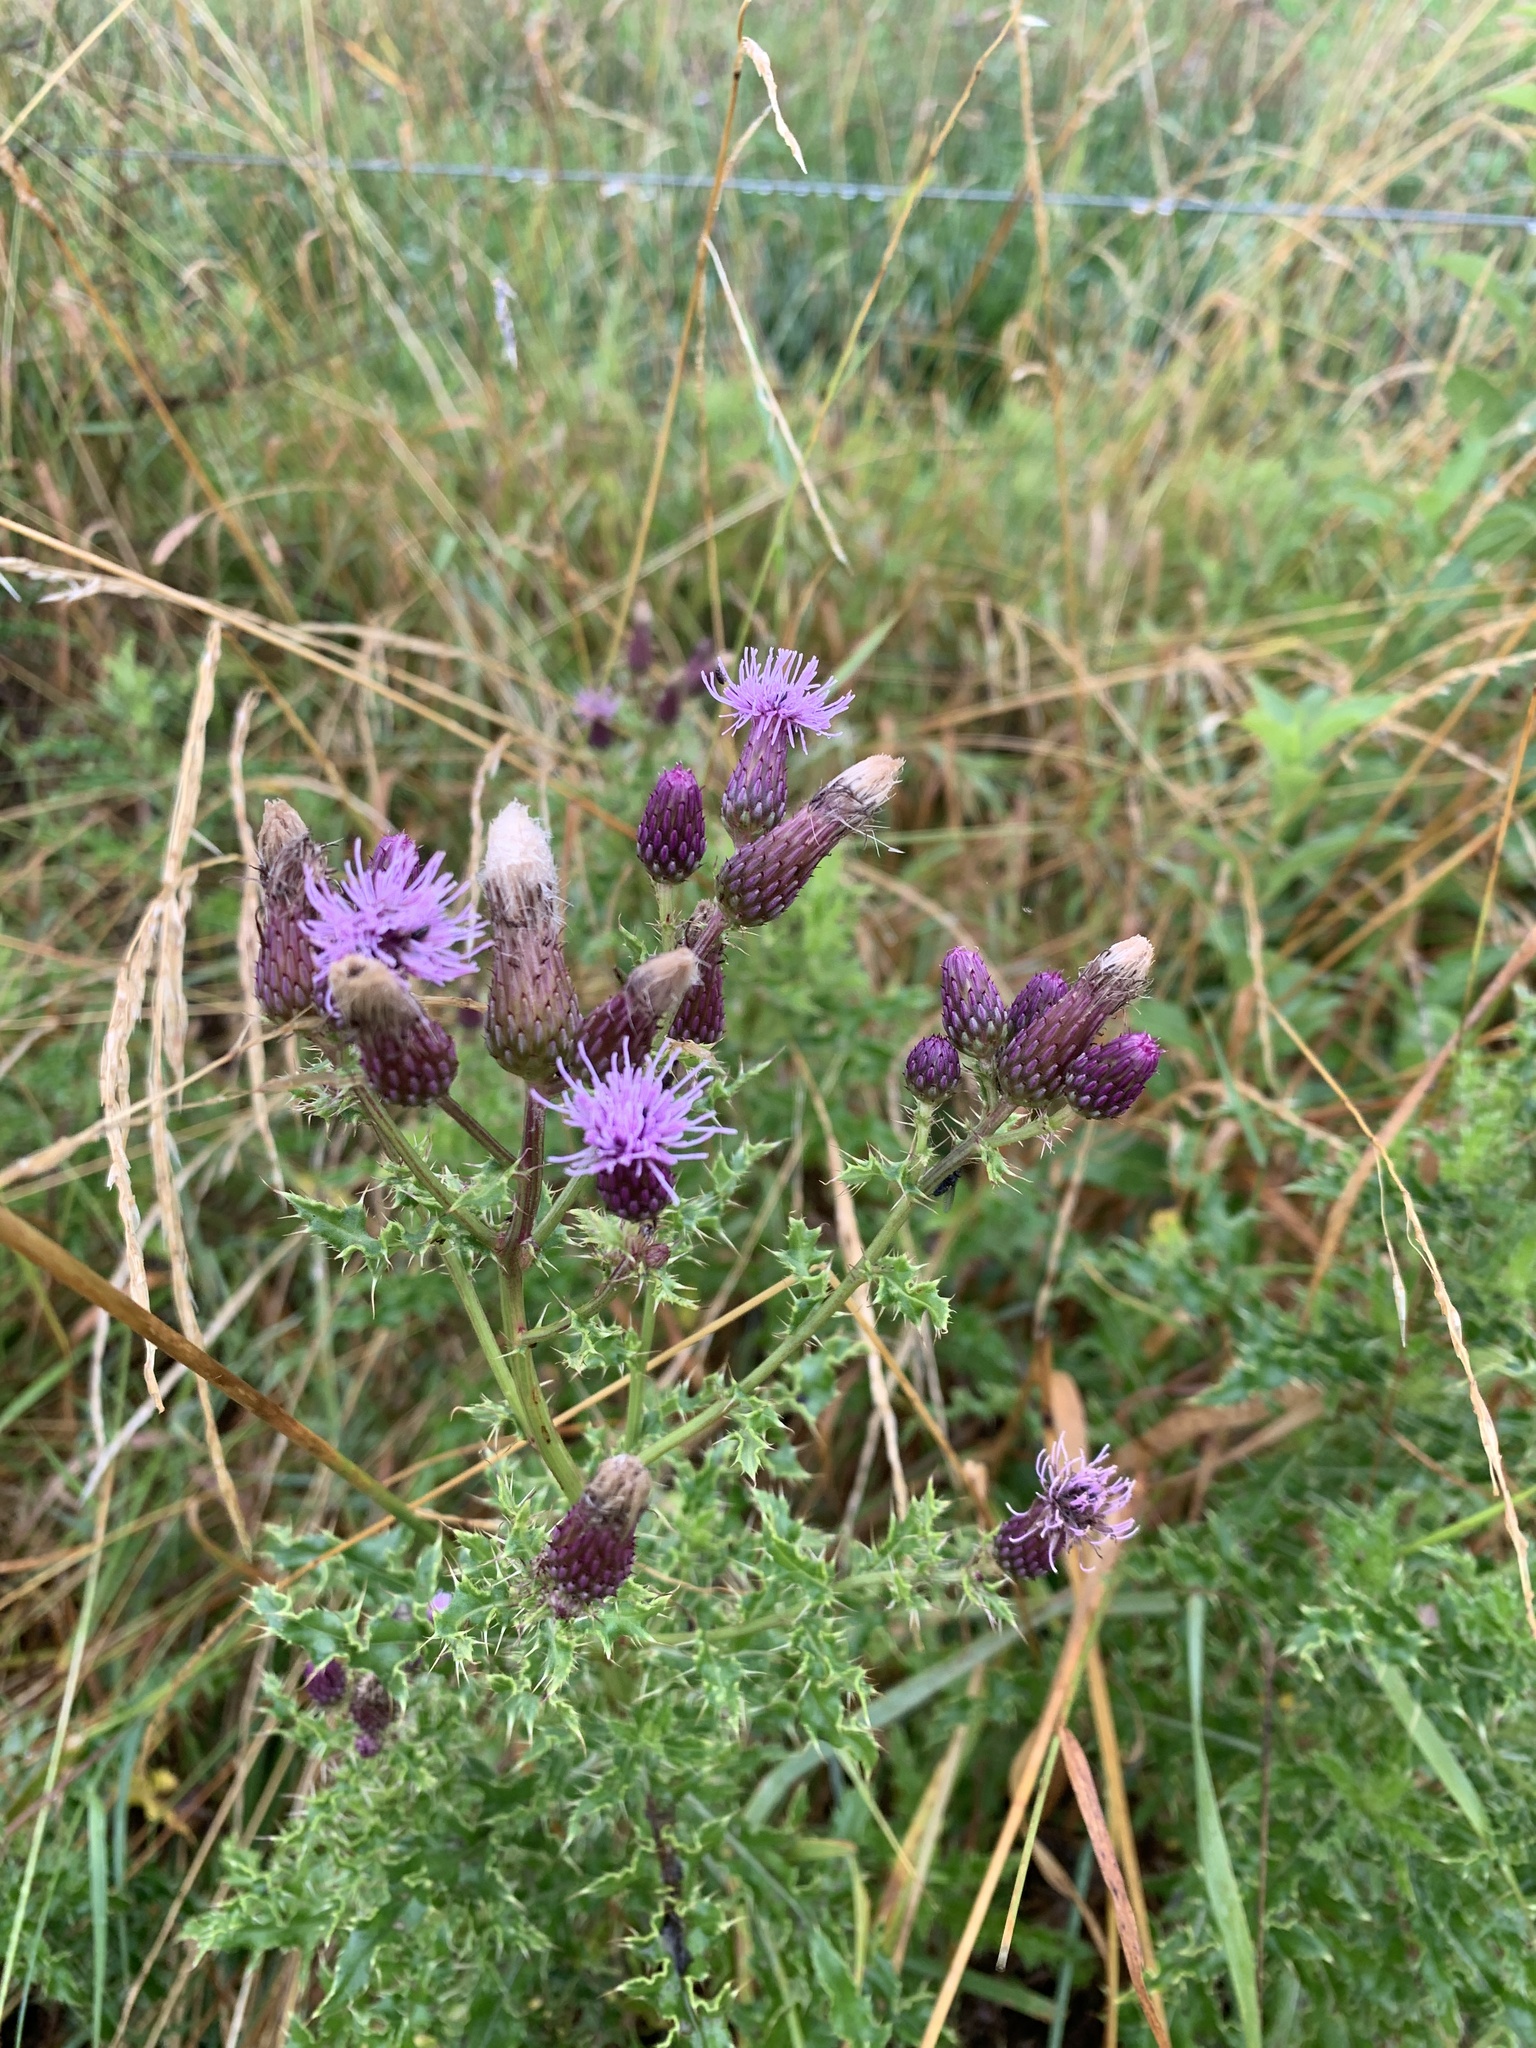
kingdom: Plantae
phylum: Tracheophyta
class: Magnoliopsida
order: Asterales
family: Asteraceae
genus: Cirsium
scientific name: Cirsium arvense
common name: Creeping thistle
